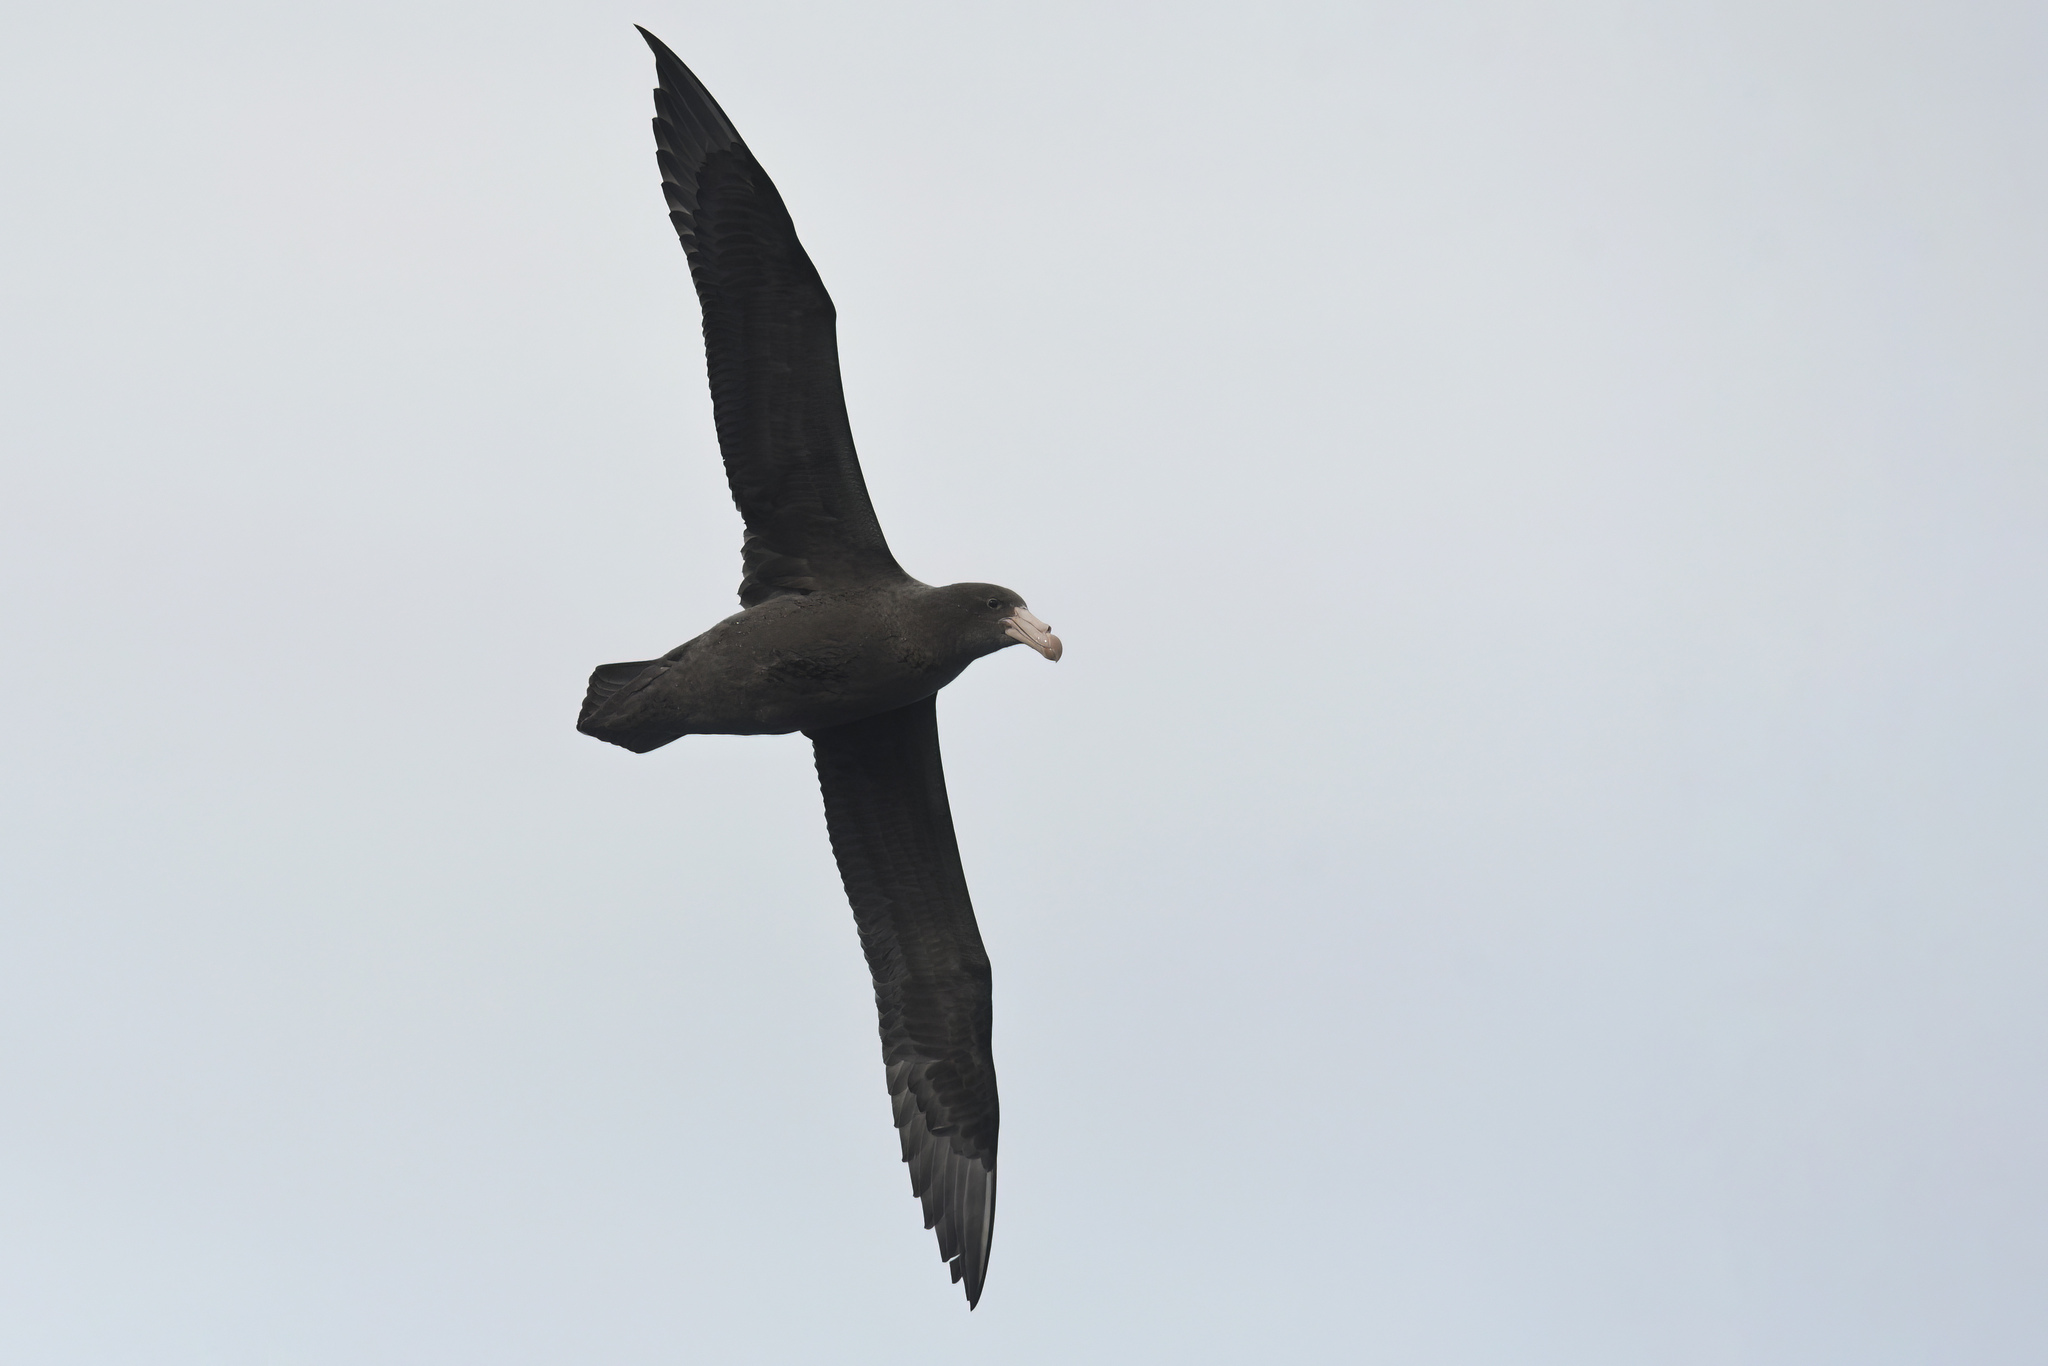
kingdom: Animalia
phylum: Chordata
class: Aves
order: Procellariiformes
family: Procellariidae
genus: Macronectes
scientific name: Macronectes halli
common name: Northern giant petrel
